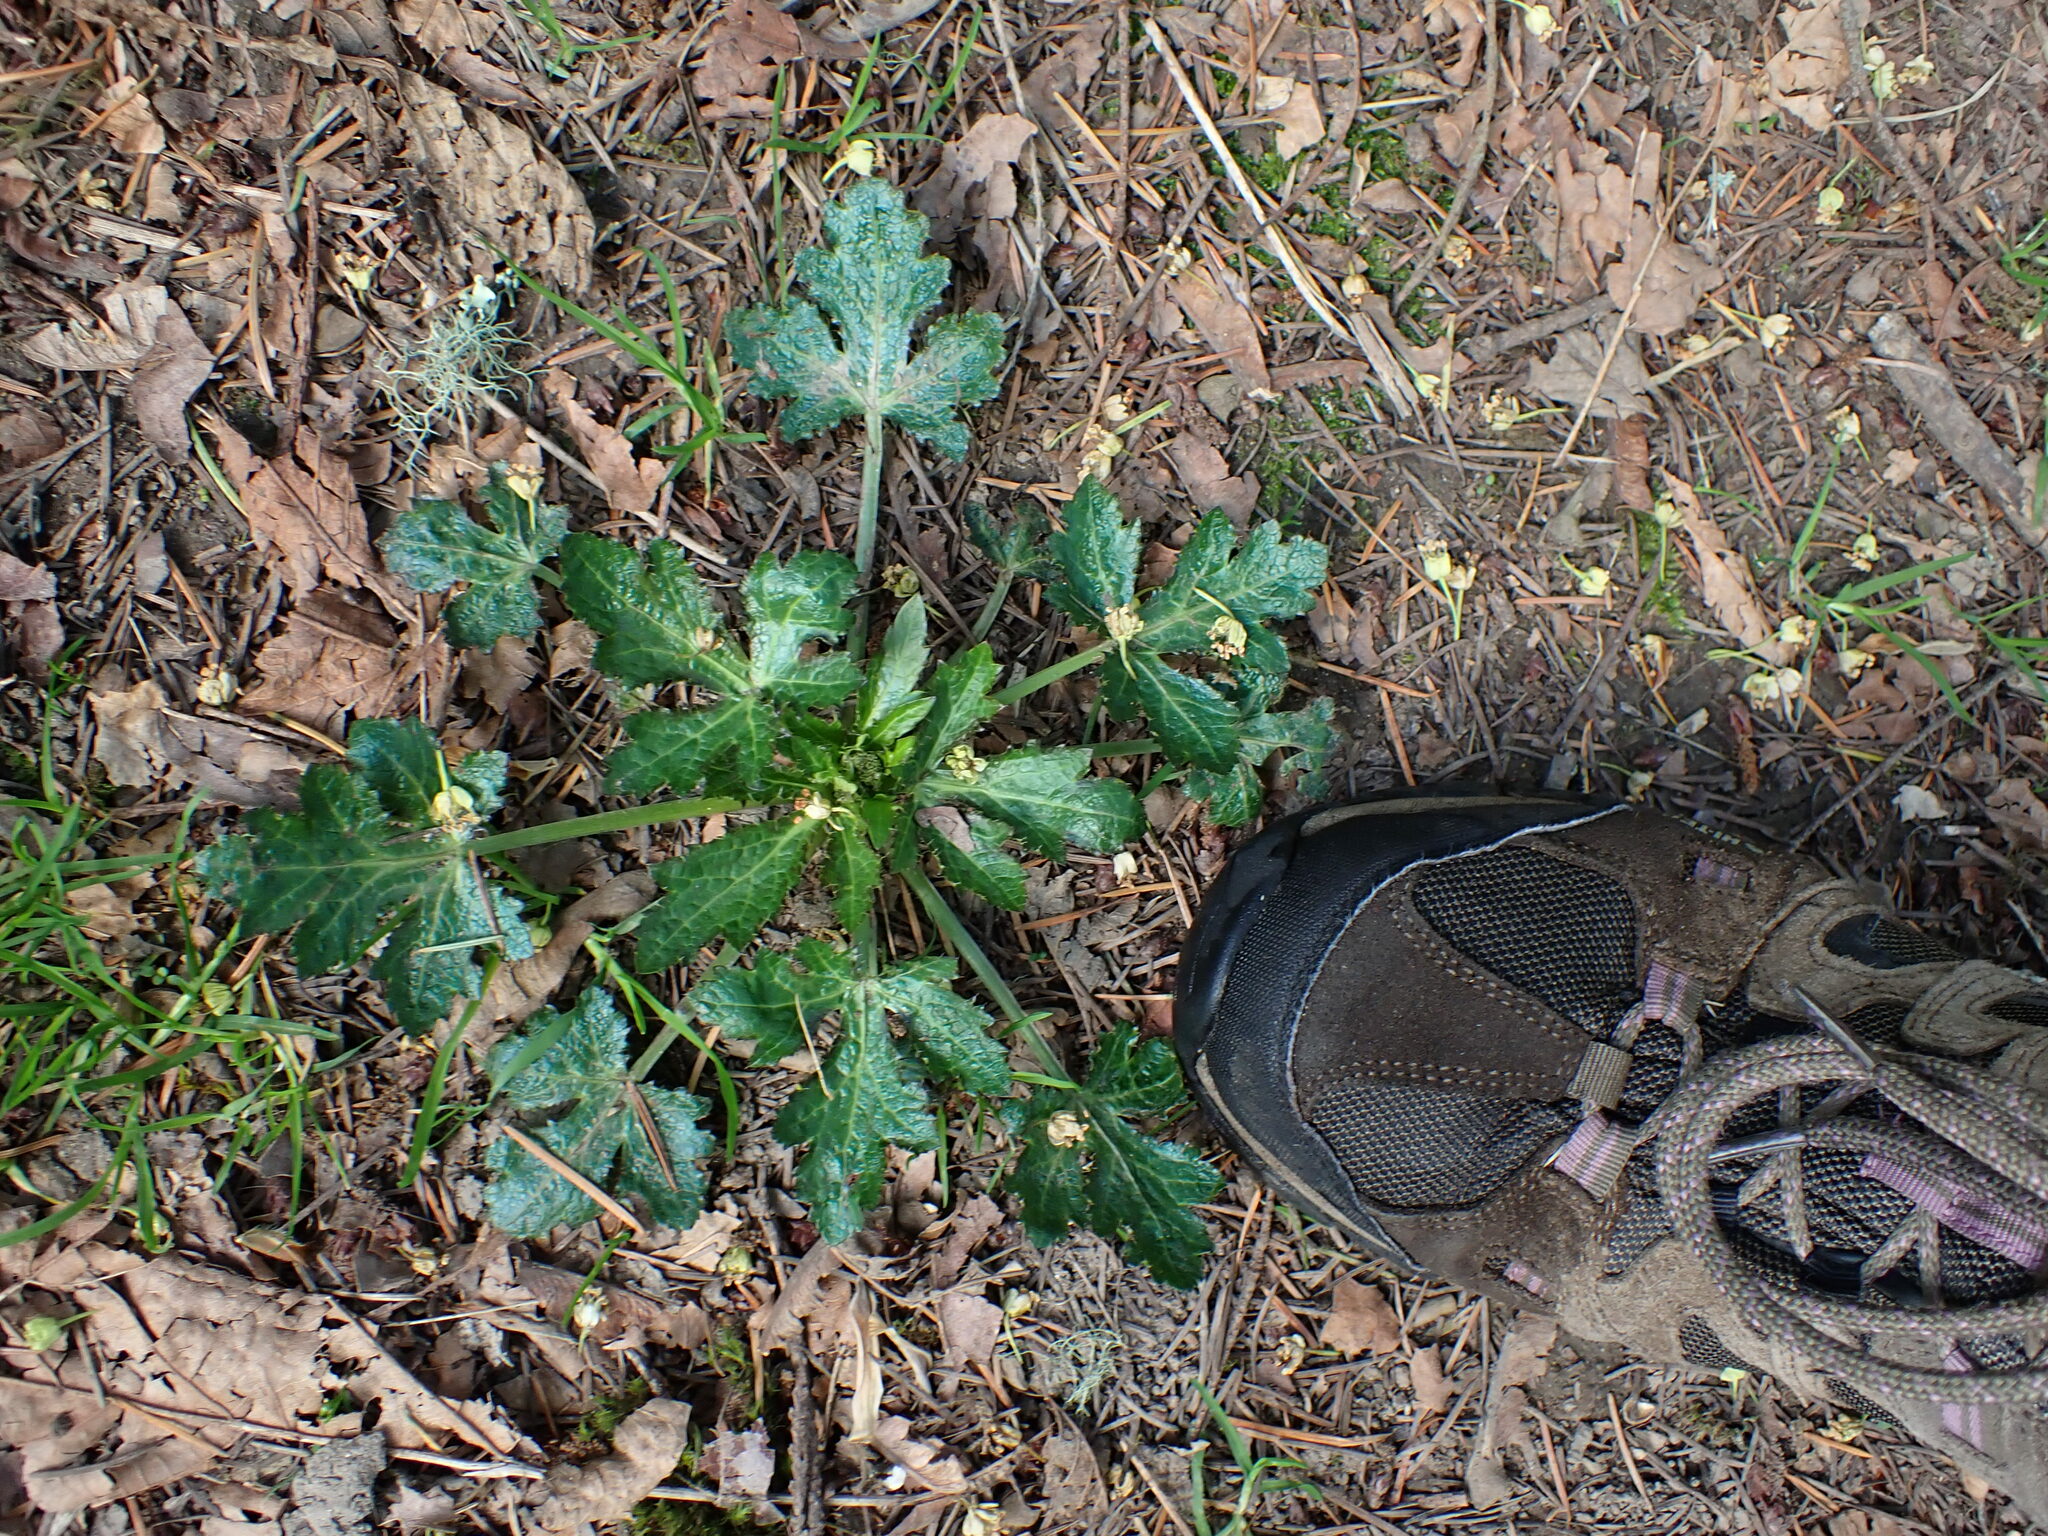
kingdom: Plantae
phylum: Tracheophyta
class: Magnoliopsida
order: Apiales
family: Apiaceae
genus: Sanicula
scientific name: Sanicula crassicaulis
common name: Western snakeroot
